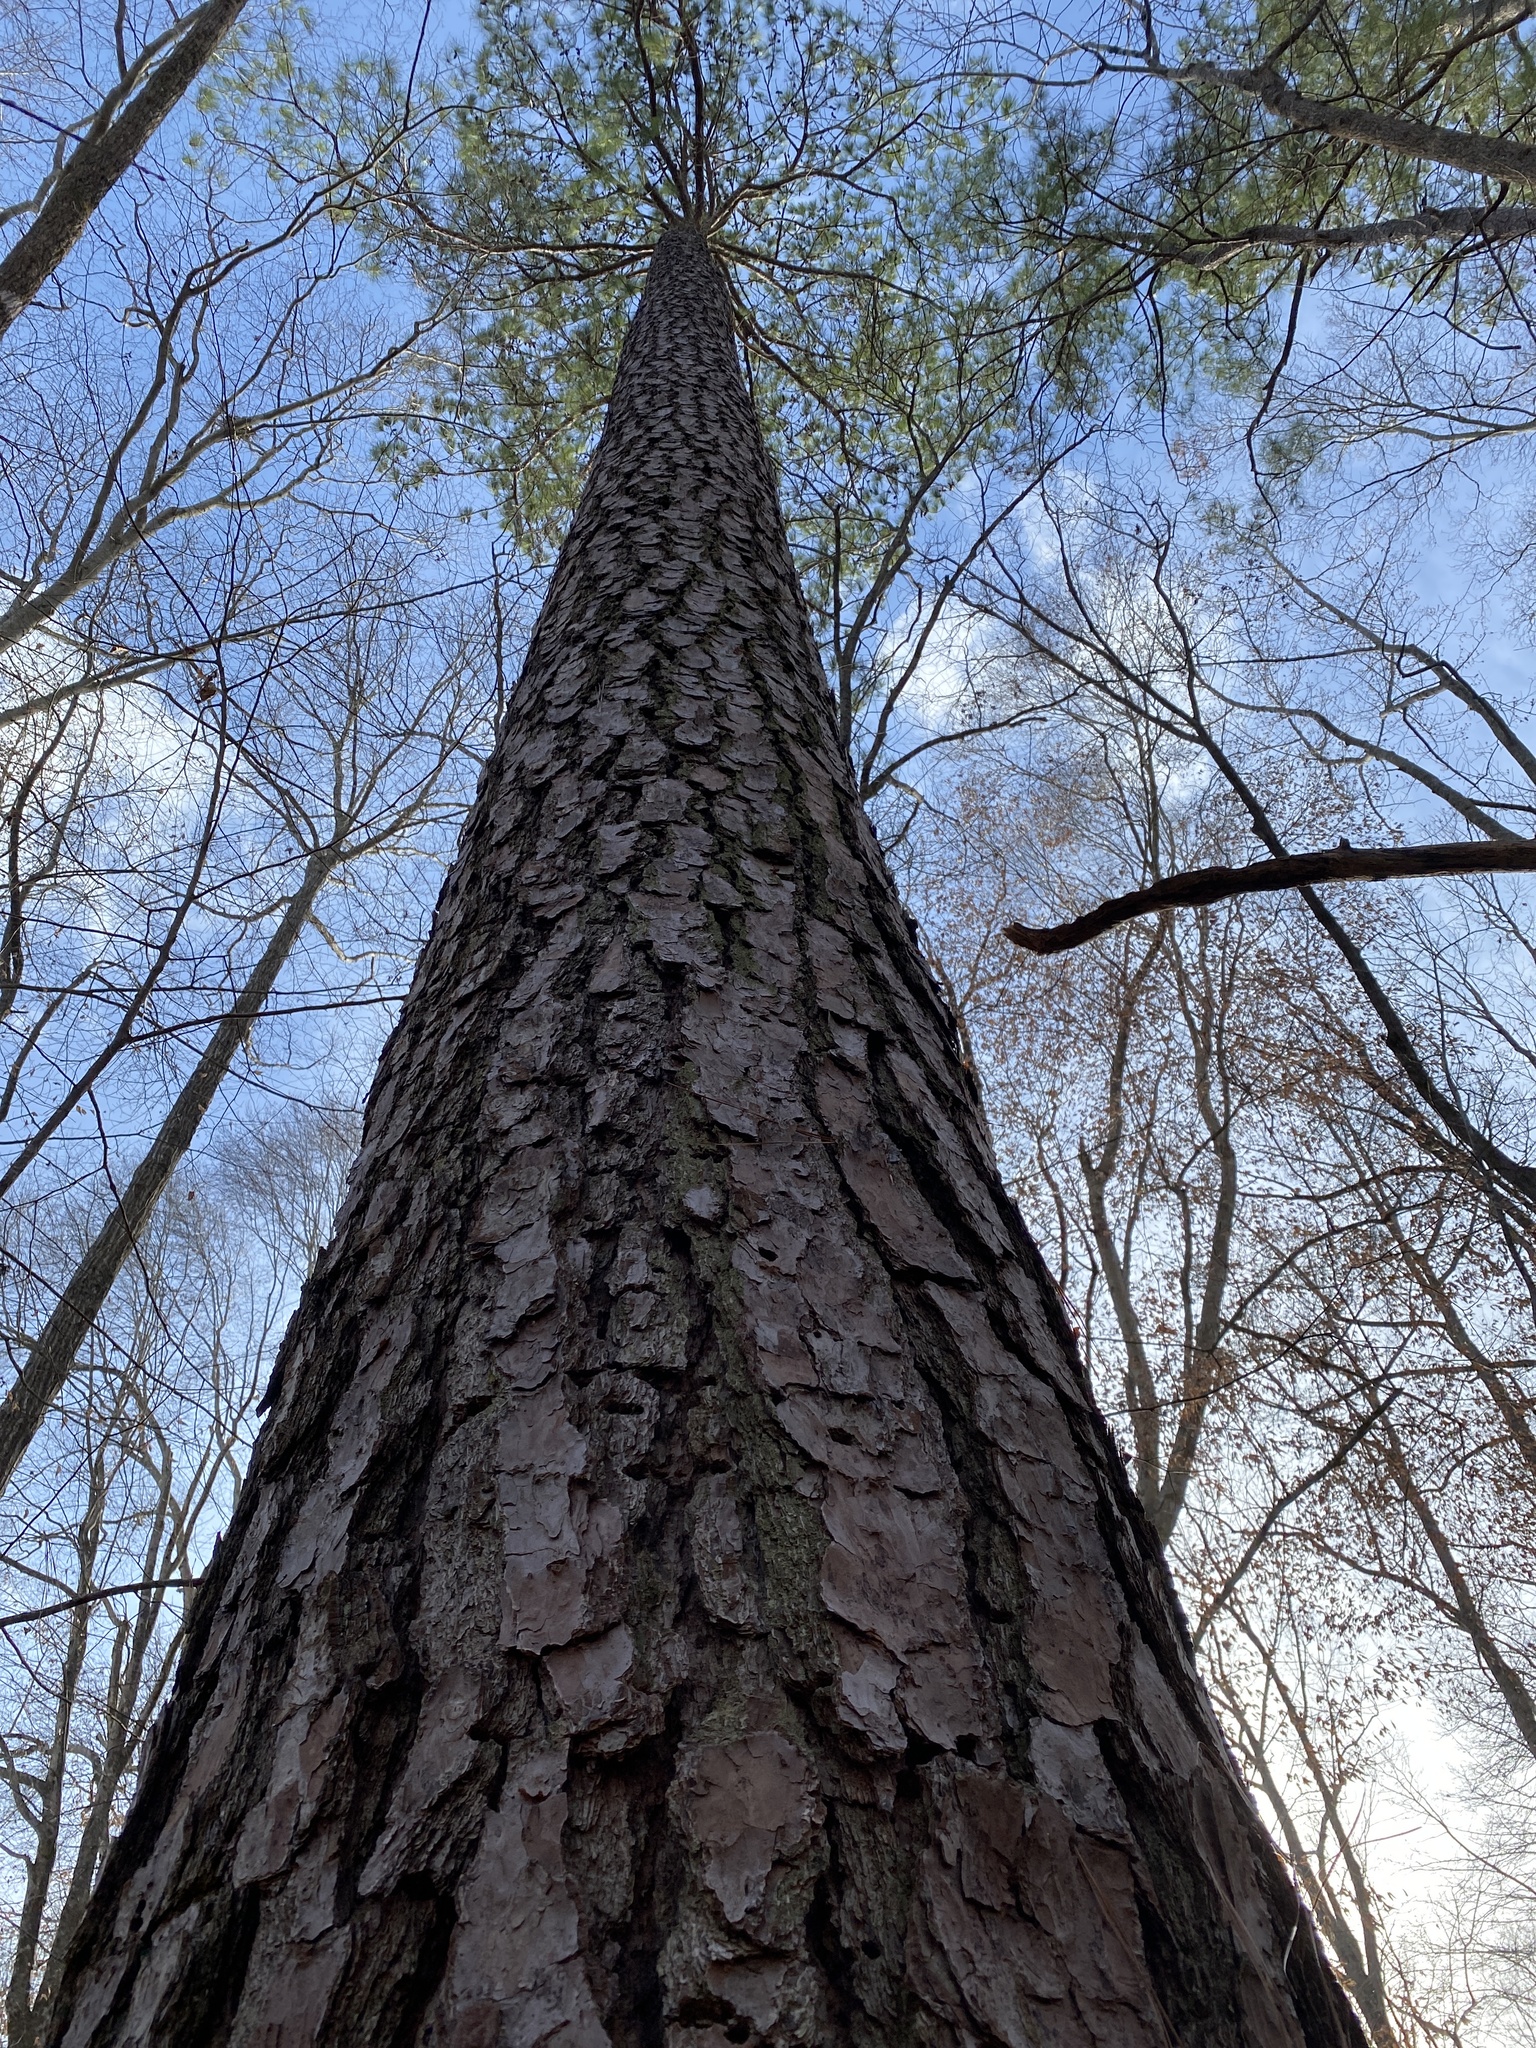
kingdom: Plantae
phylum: Tracheophyta
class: Pinopsida
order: Pinales
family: Pinaceae
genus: Pinus
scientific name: Pinus taeda
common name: Loblolly pine
